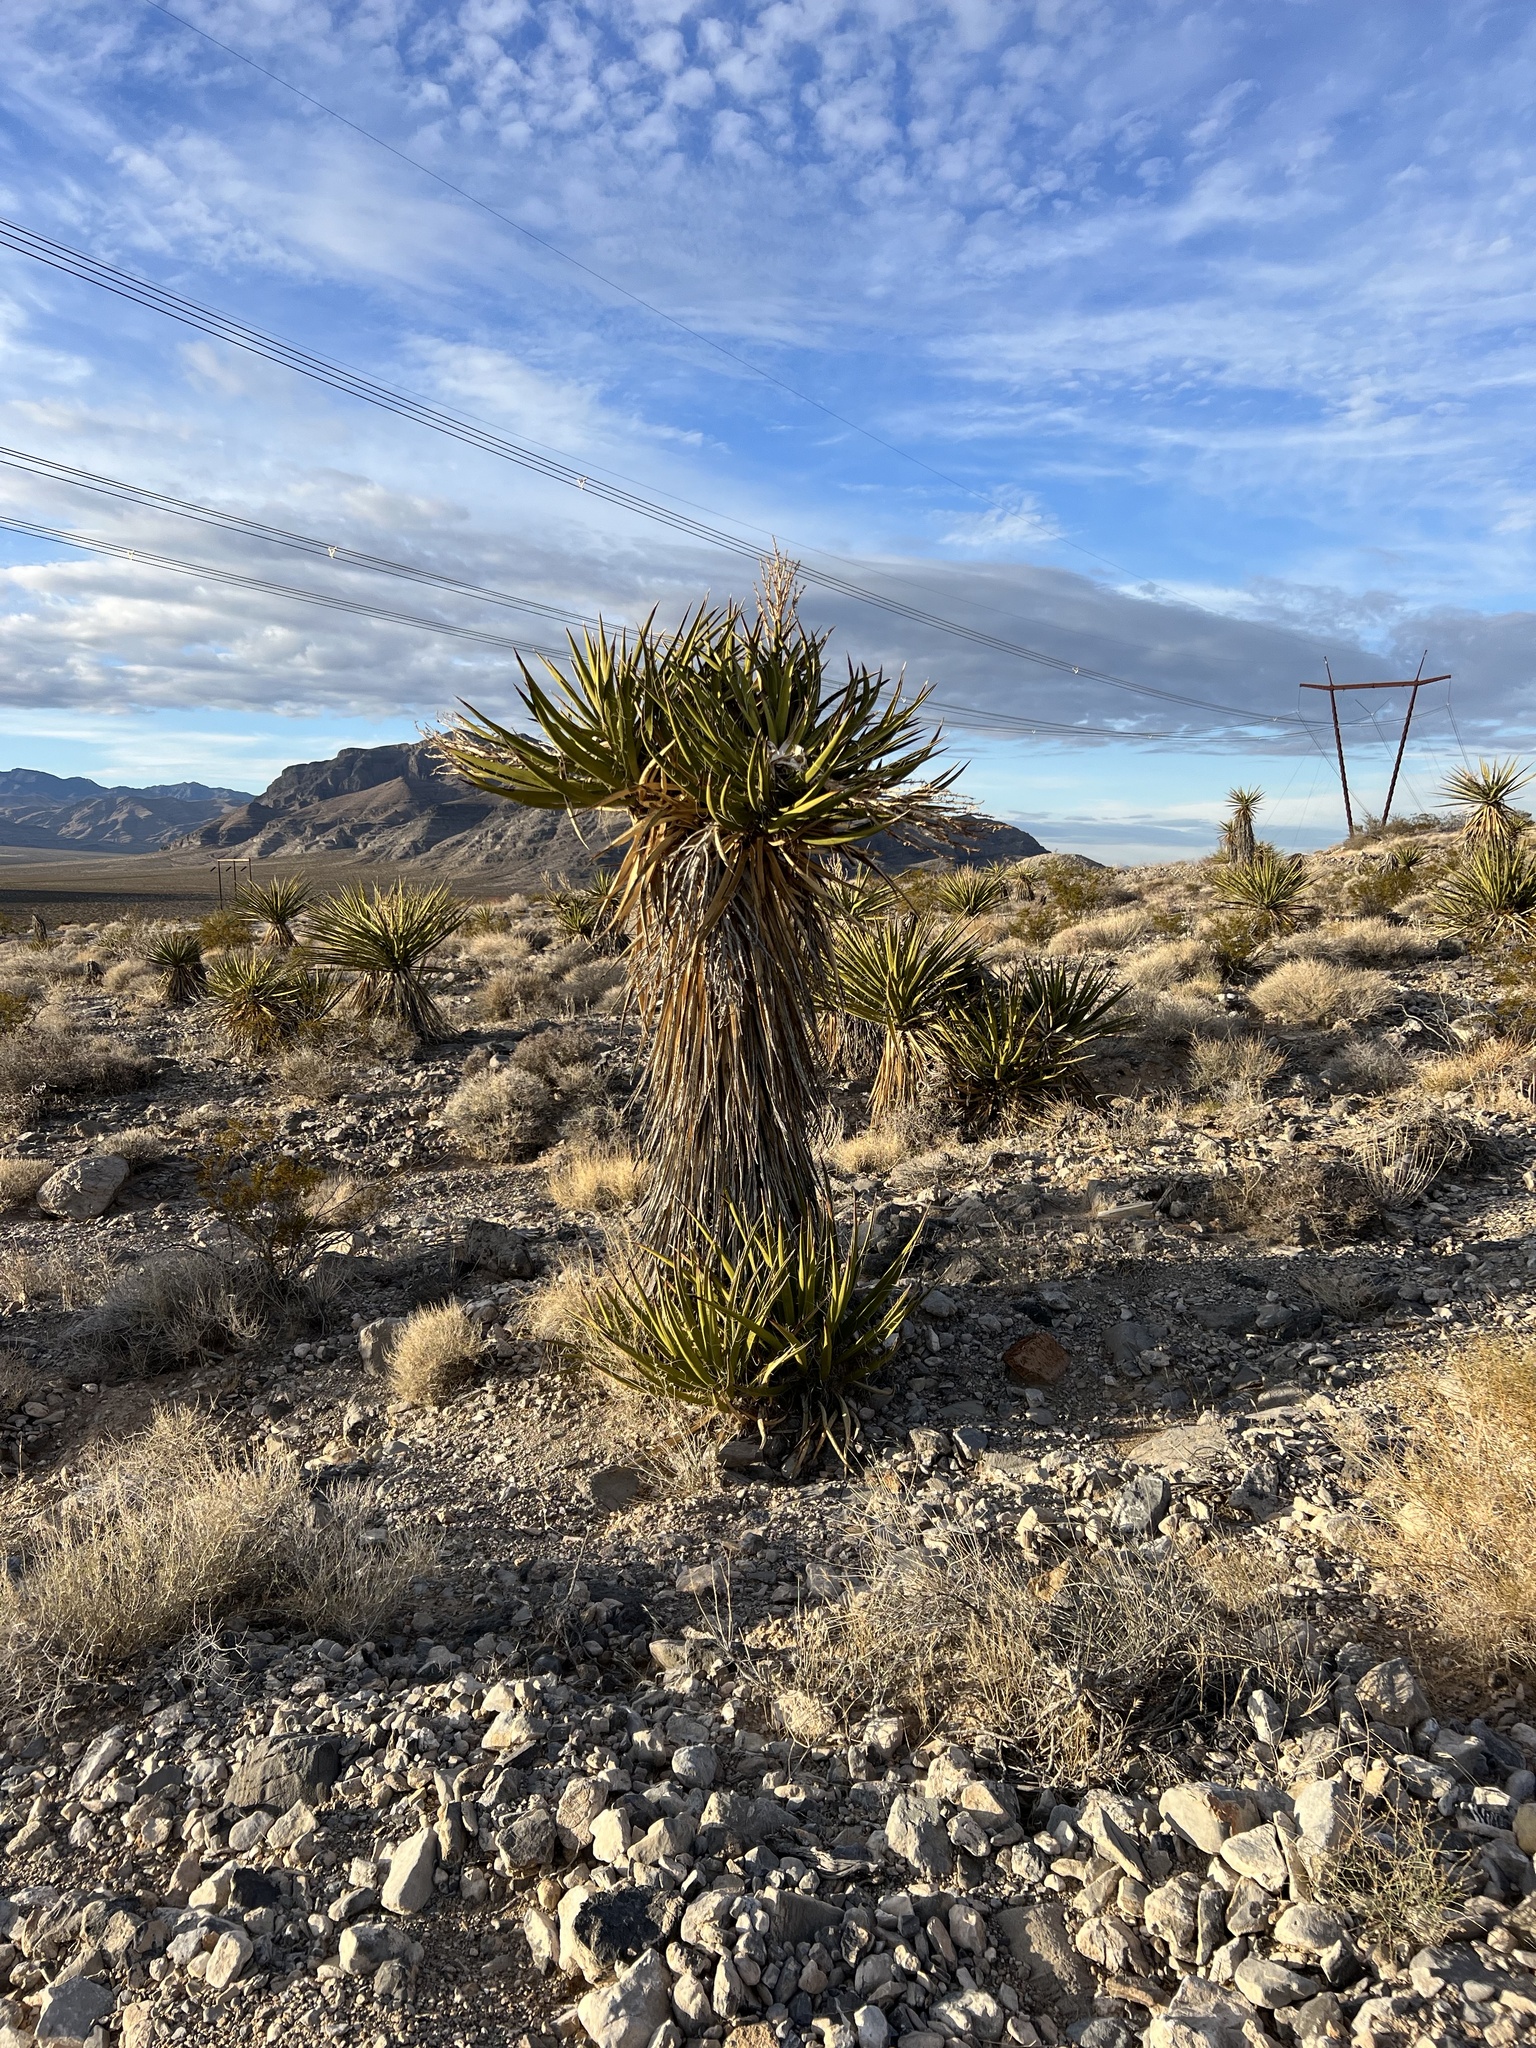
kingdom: Plantae
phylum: Tracheophyta
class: Liliopsida
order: Asparagales
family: Asparagaceae
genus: Yucca
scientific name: Yucca schidigera
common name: Mojave yucca
